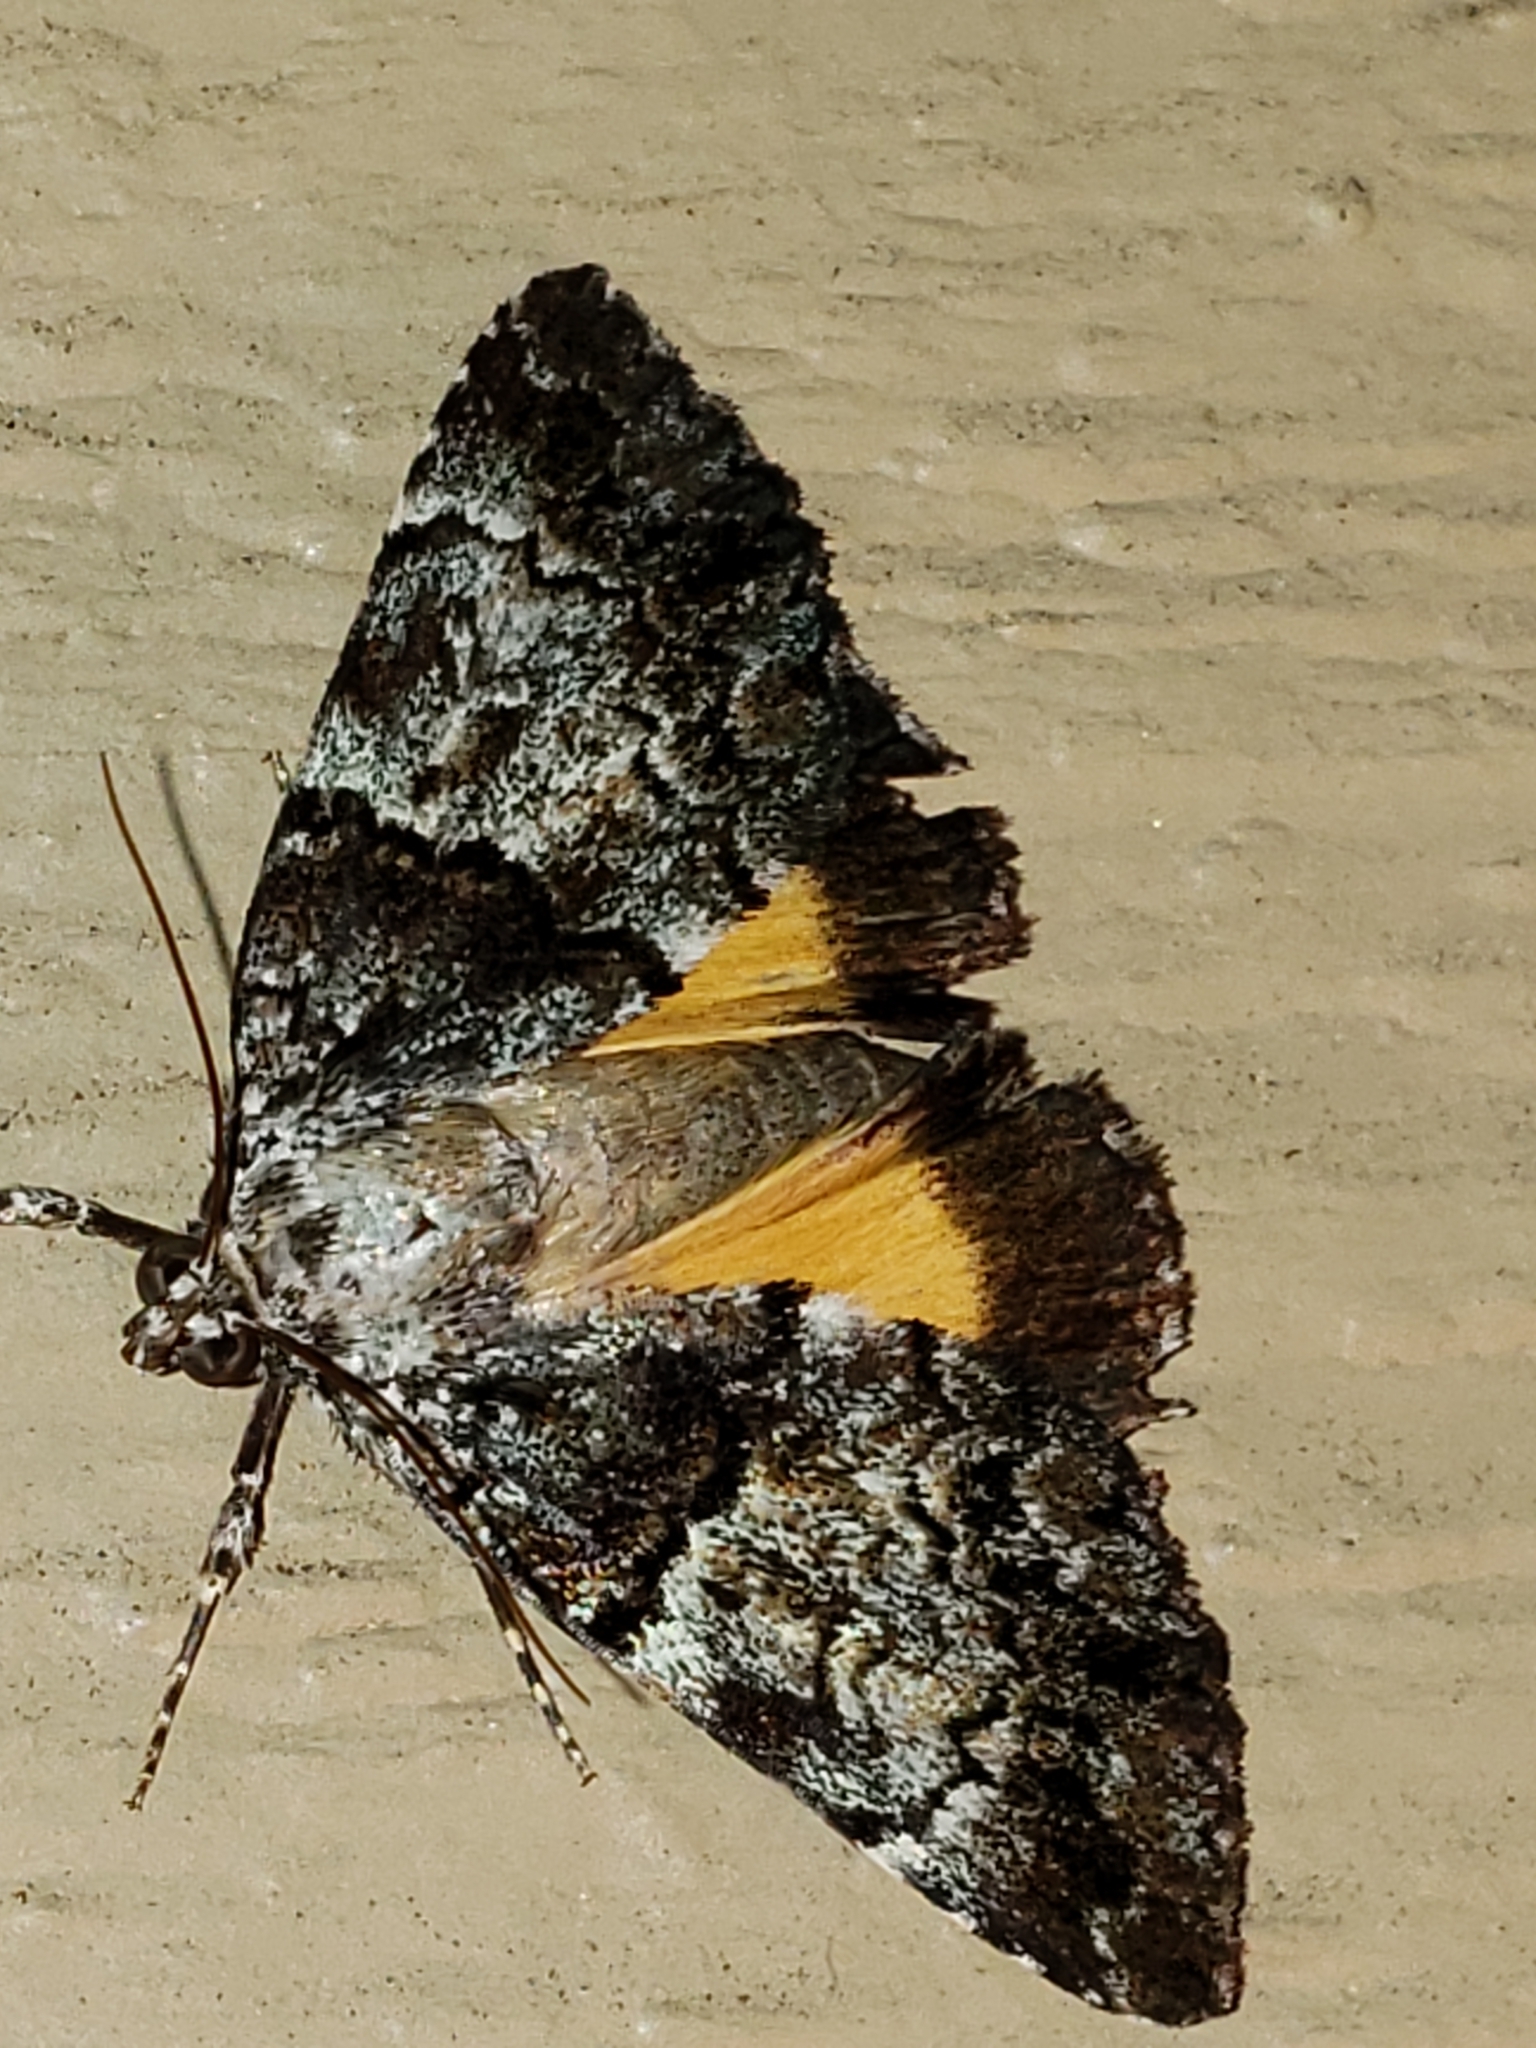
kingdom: Animalia
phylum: Arthropoda
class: Insecta
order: Lepidoptera
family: Erebidae
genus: Allotria
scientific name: Allotria elonympha
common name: False underwing
